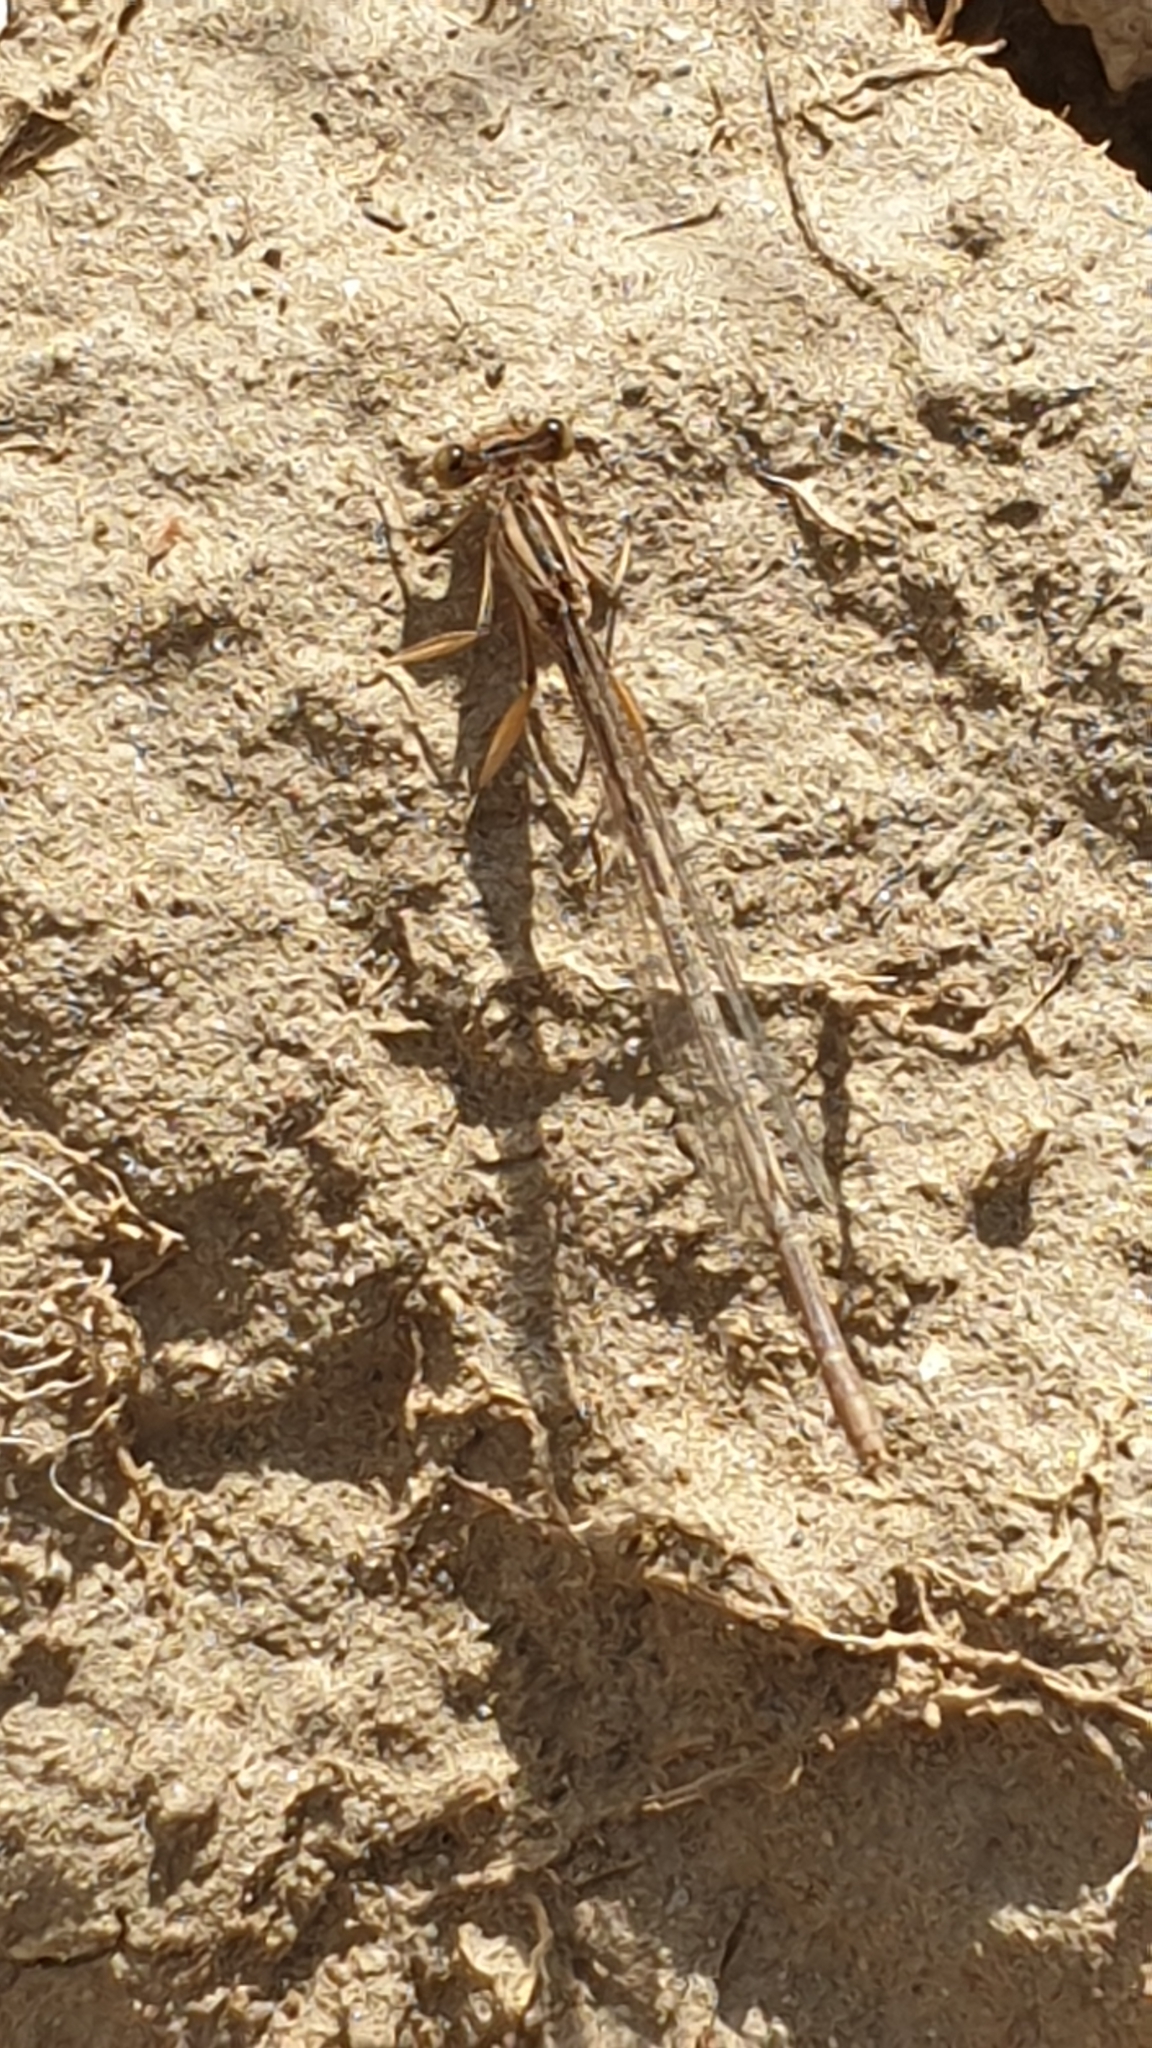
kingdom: Animalia
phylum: Arthropoda
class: Insecta
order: Odonata
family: Platycnemididae
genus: Platycnemis
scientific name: Platycnemis latipes
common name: White featherleg
